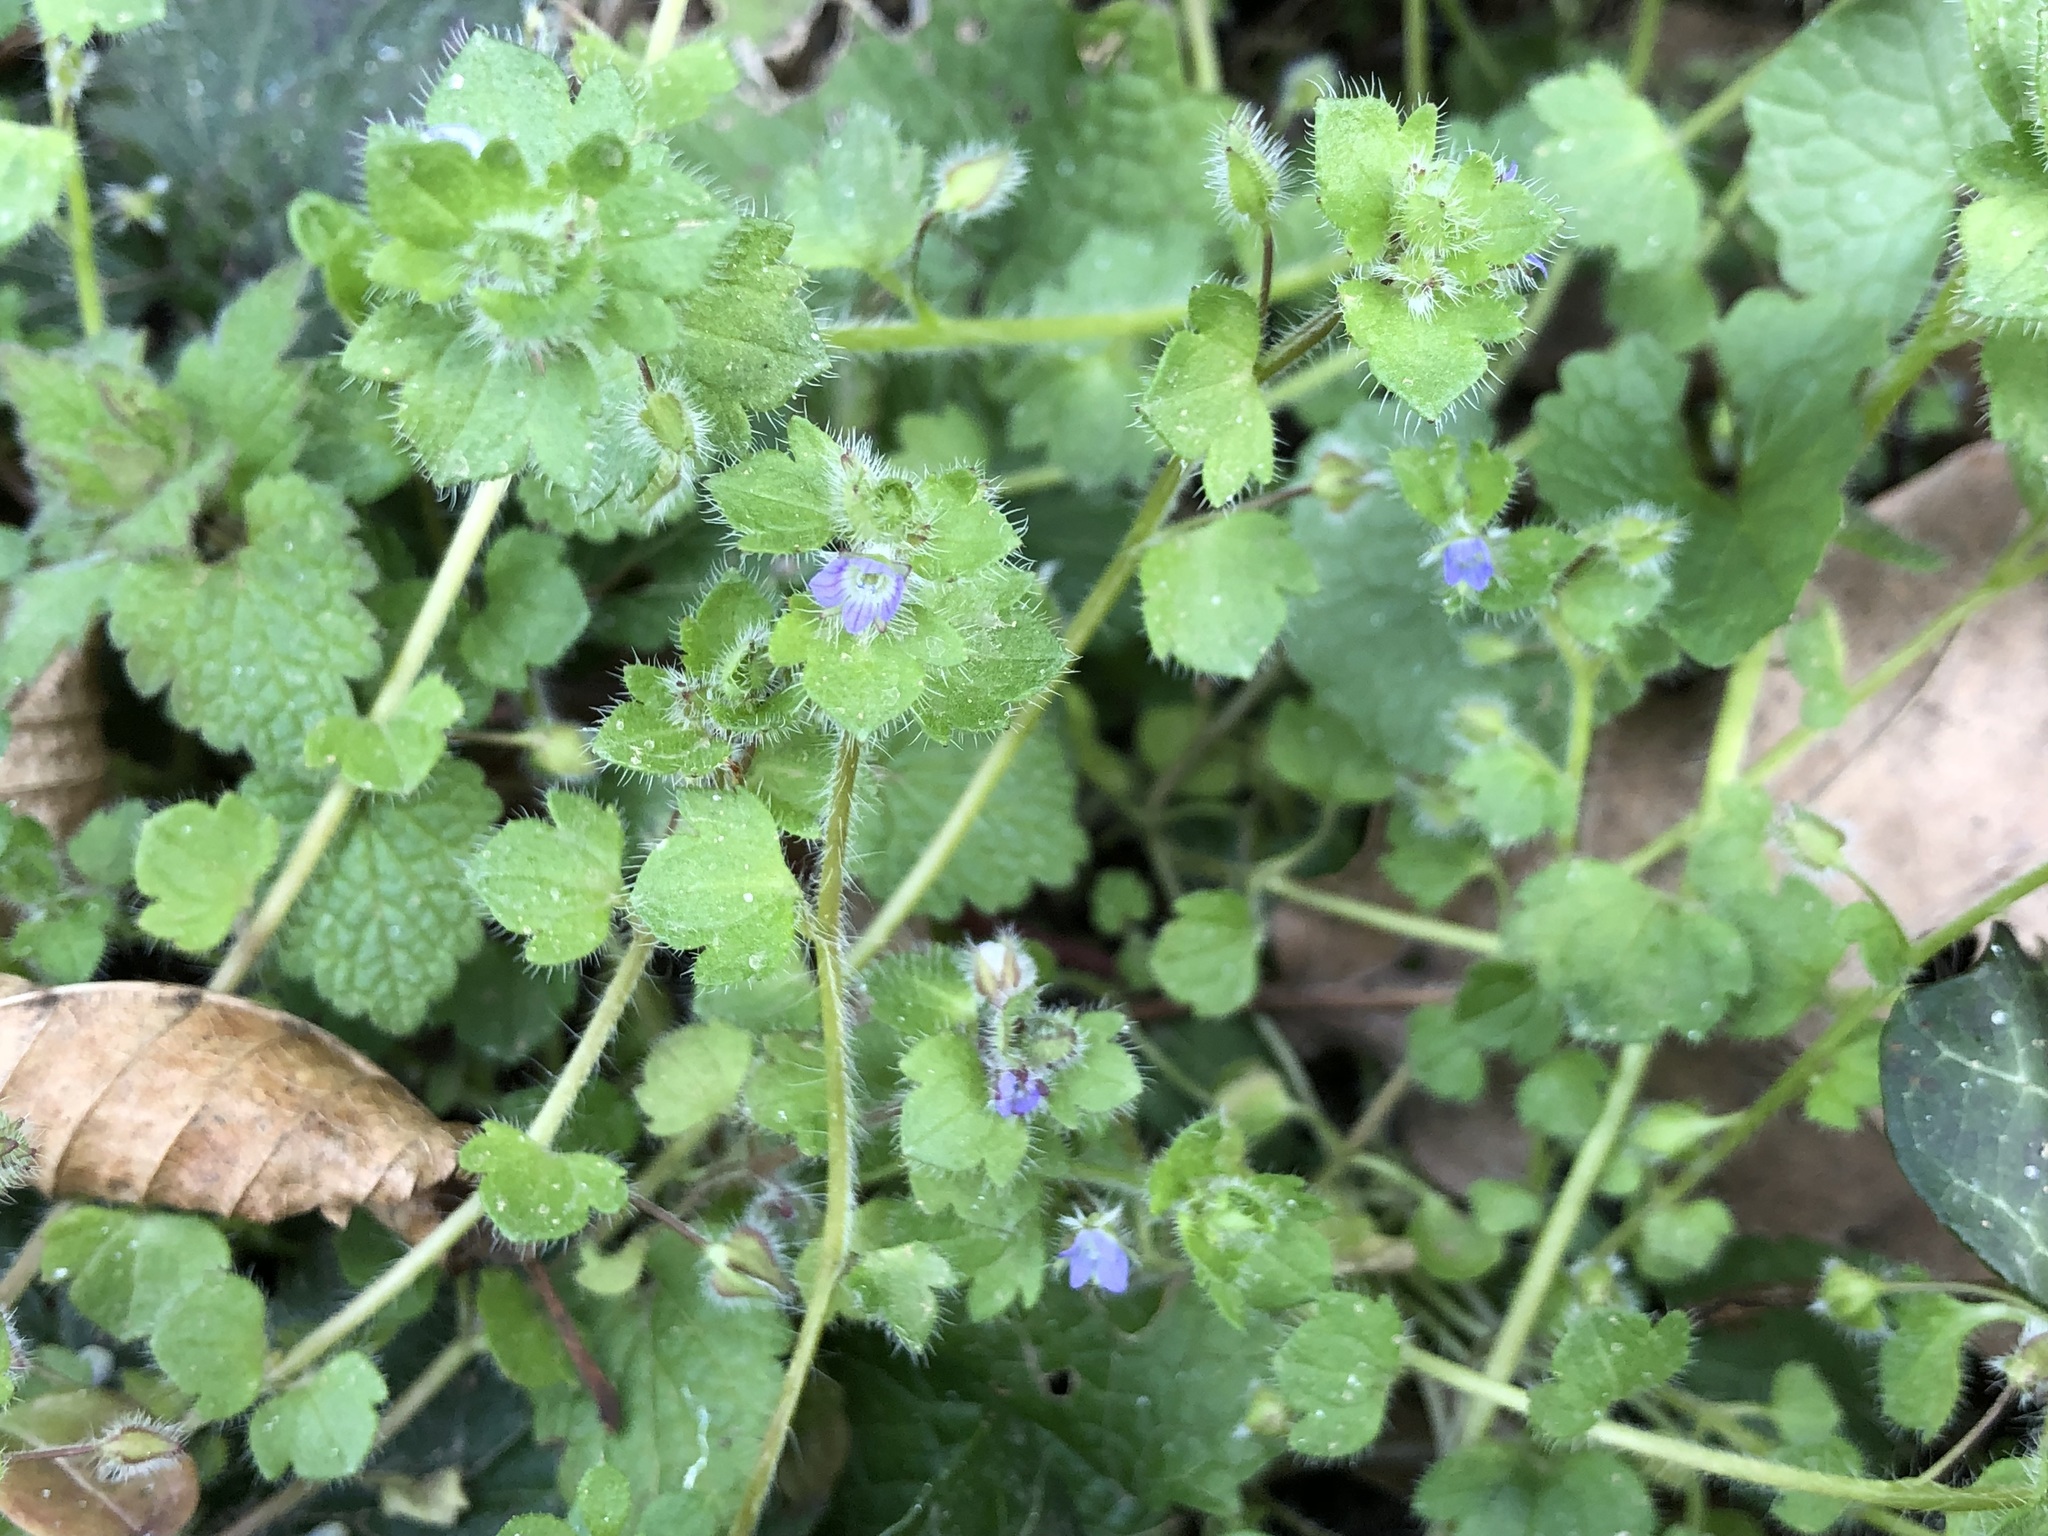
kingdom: Plantae
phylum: Tracheophyta
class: Magnoliopsida
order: Lamiales
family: Plantaginaceae
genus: Veronica
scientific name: Veronica hederifolia
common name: Ivy-leaved speedwell
